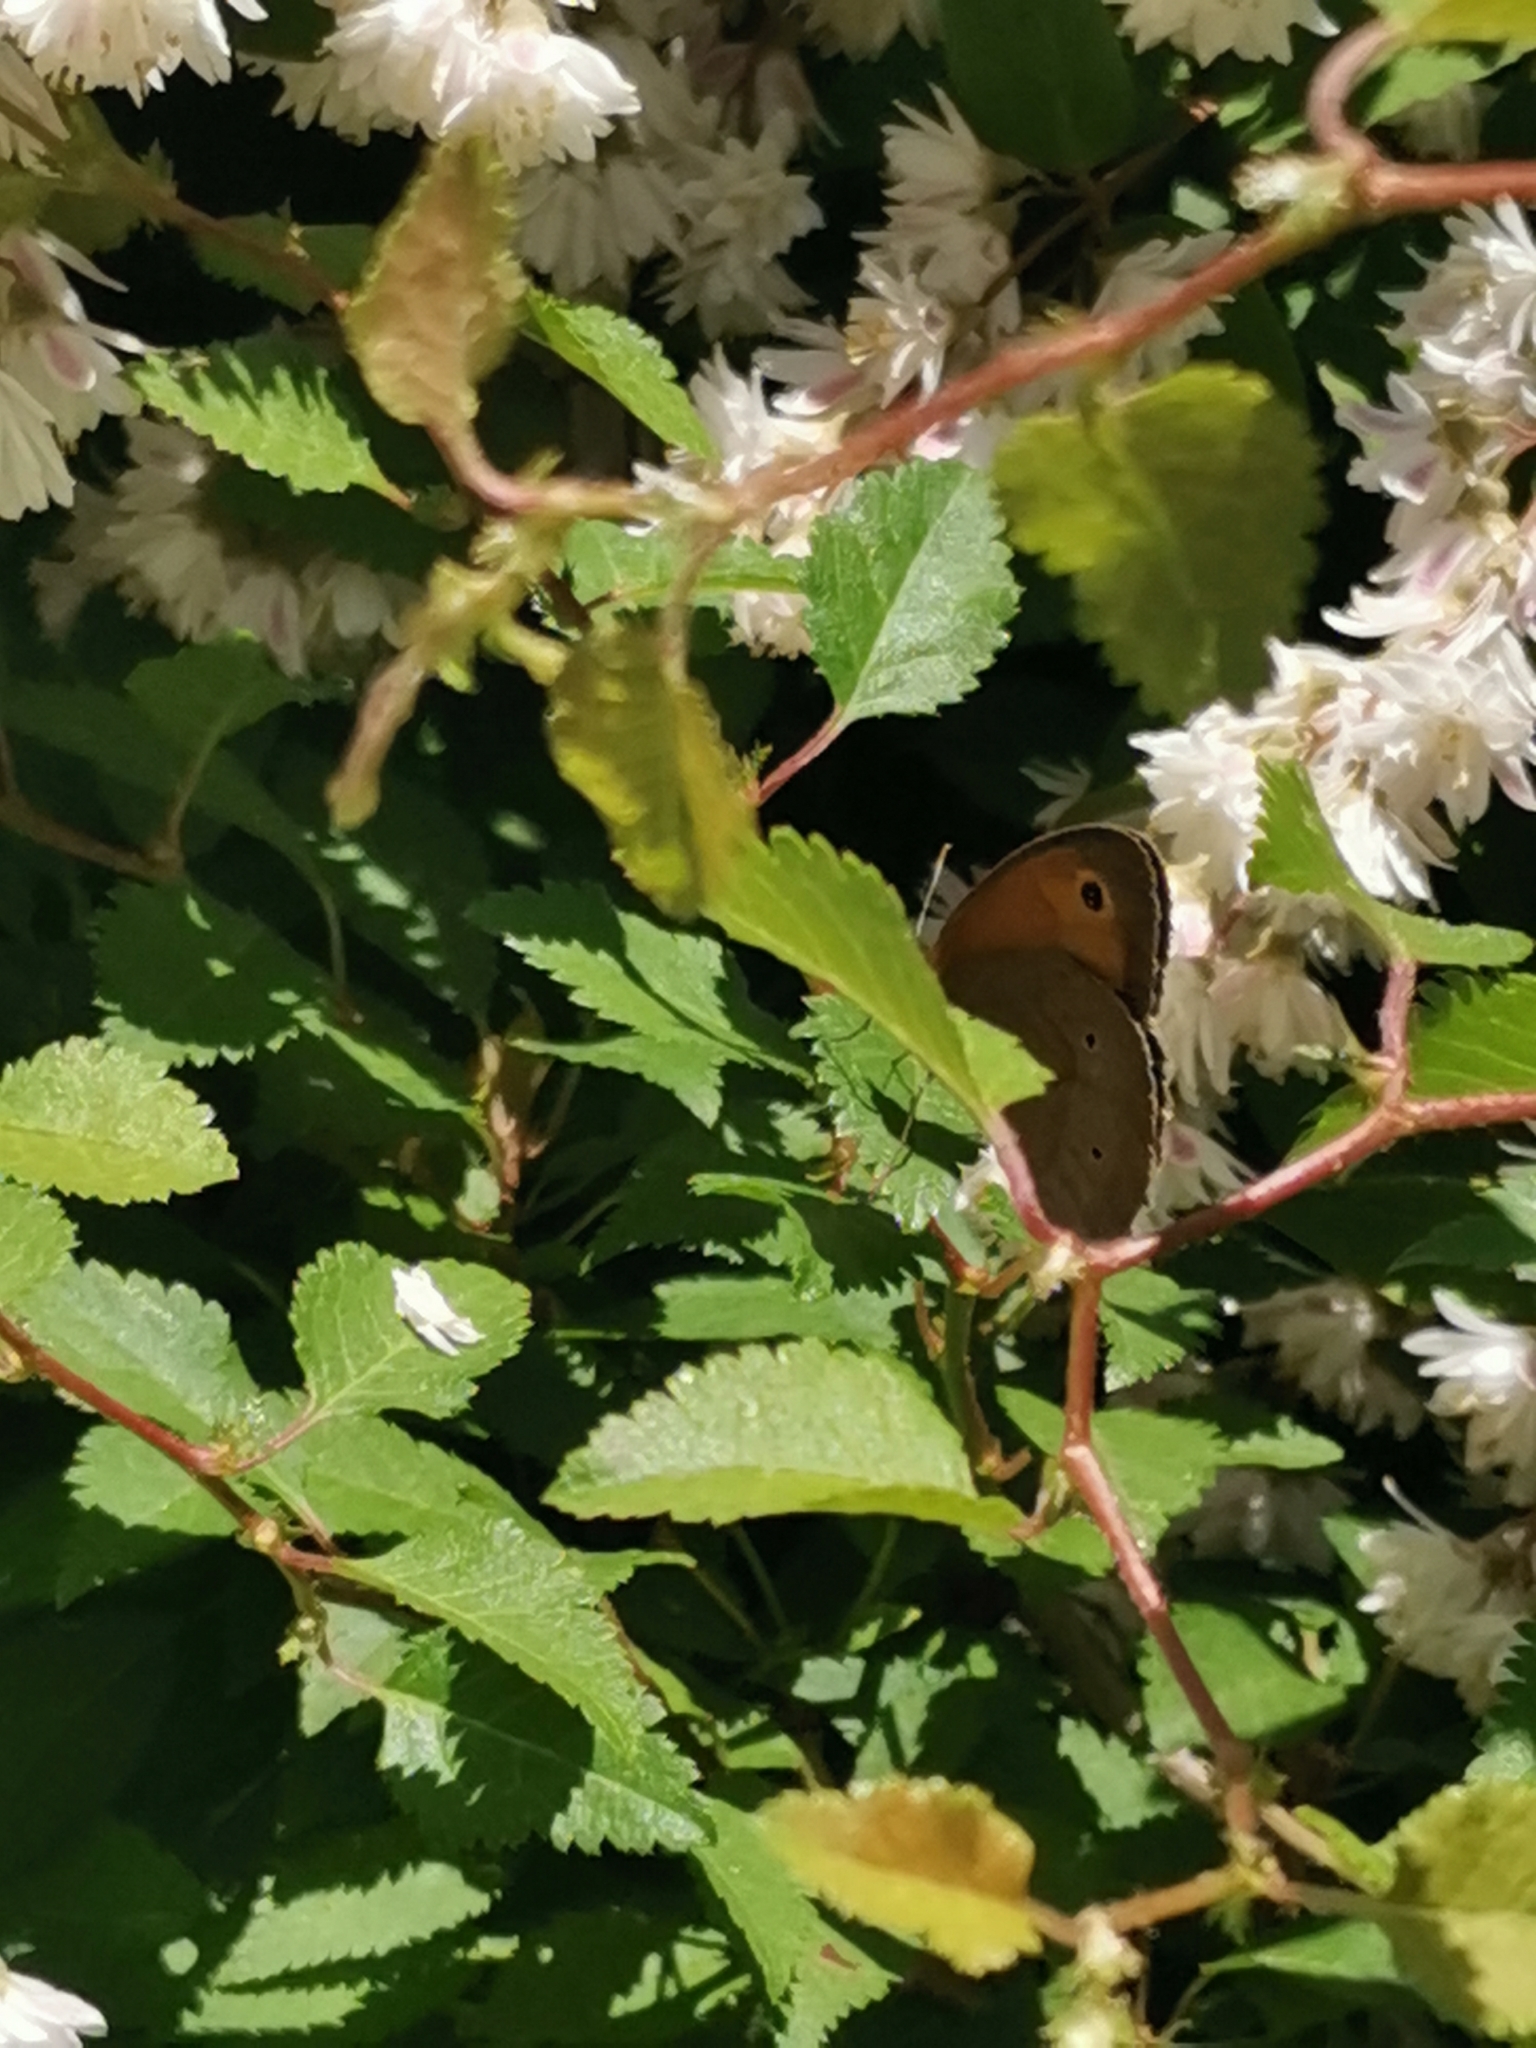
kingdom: Animalia
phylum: Arthropoda
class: Insecta
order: Lepidoptera
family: Nymphalidae
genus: Maniola
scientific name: Maniola jurtina
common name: Meadow brown
